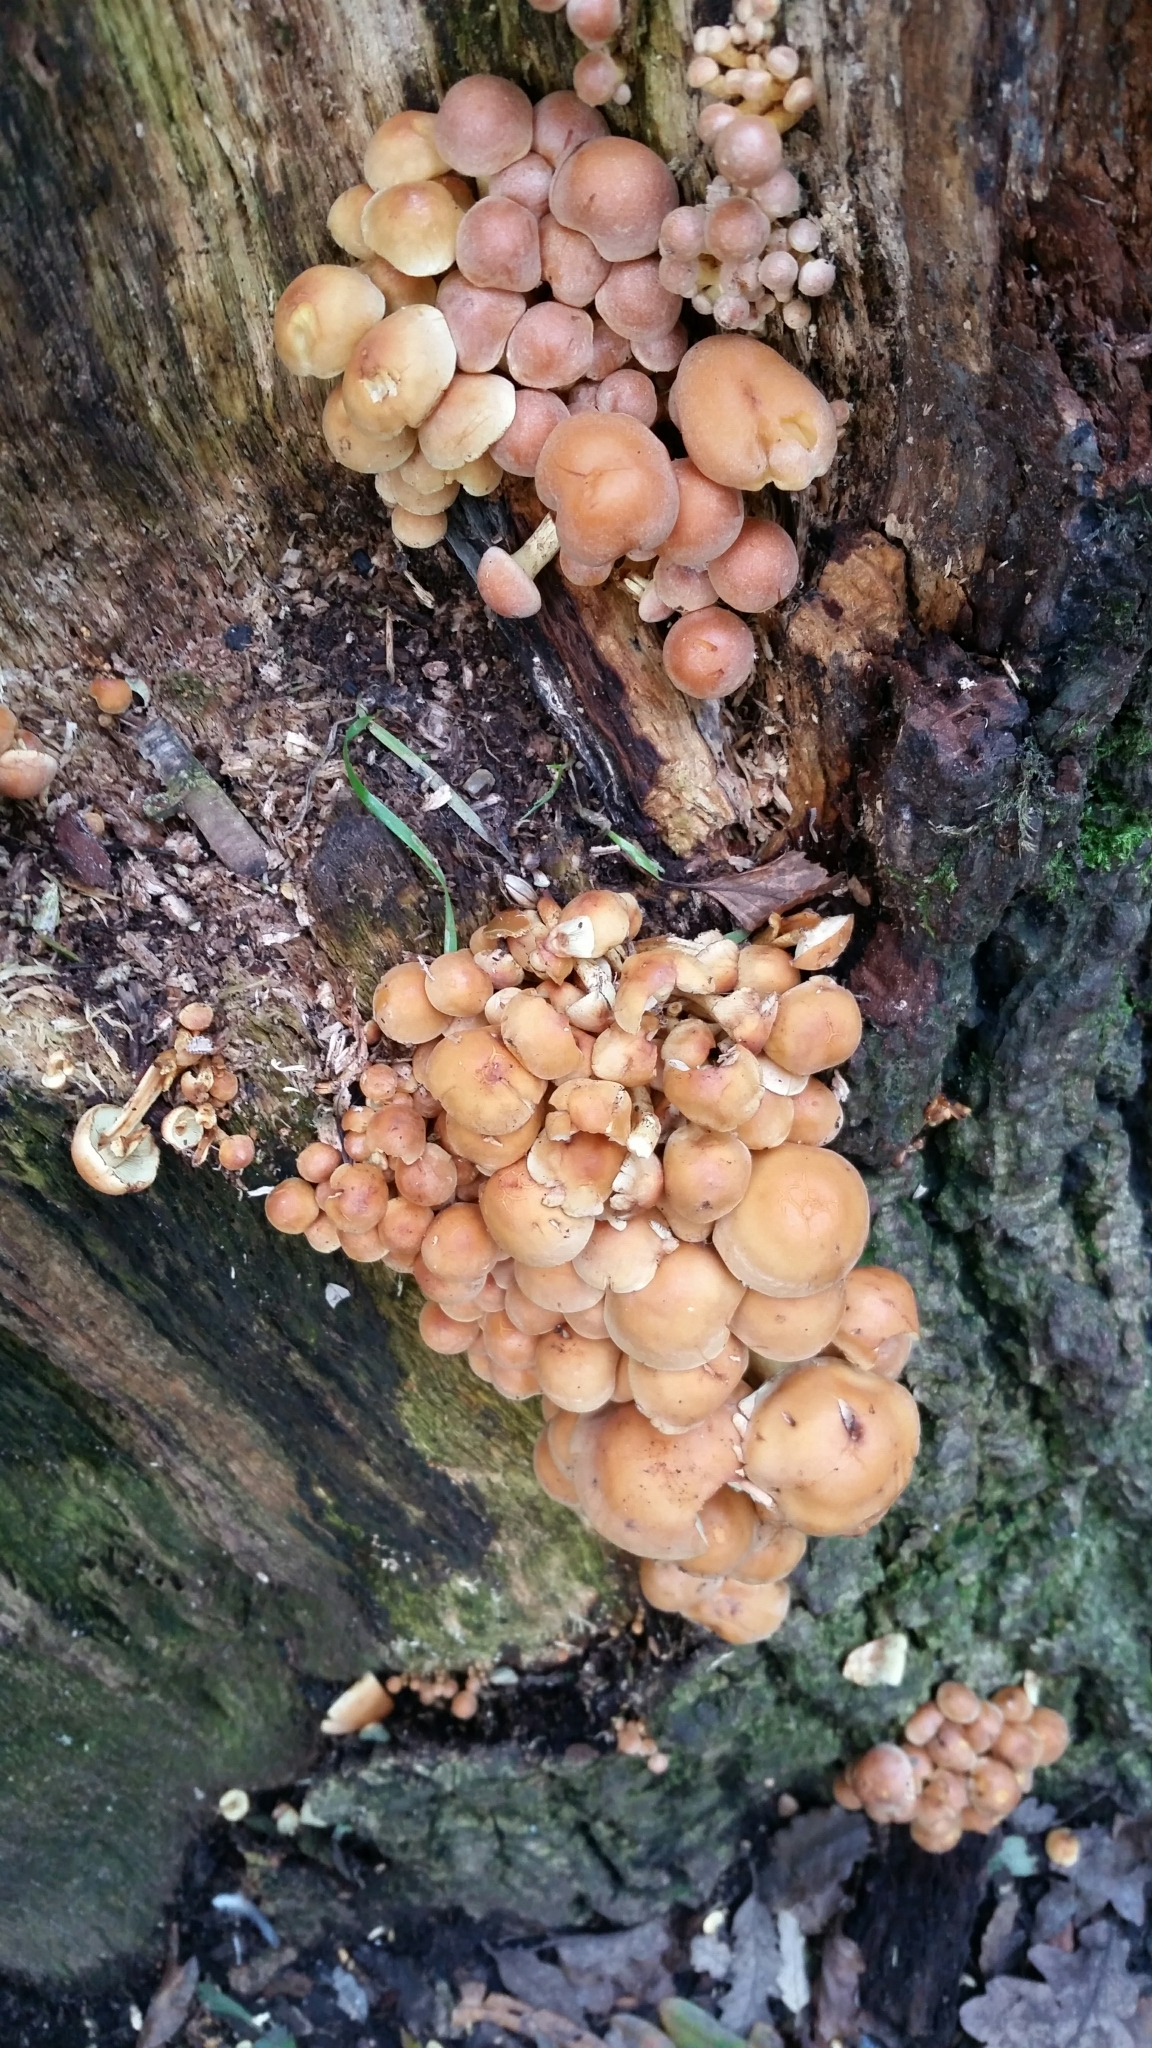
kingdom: Fungi
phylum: Basidiomycota
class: Agaricomycetes
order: Agaricales
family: Strophariaceae
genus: Hypholoma
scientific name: Hypholoma fasciculare
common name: Sulphur tuft
